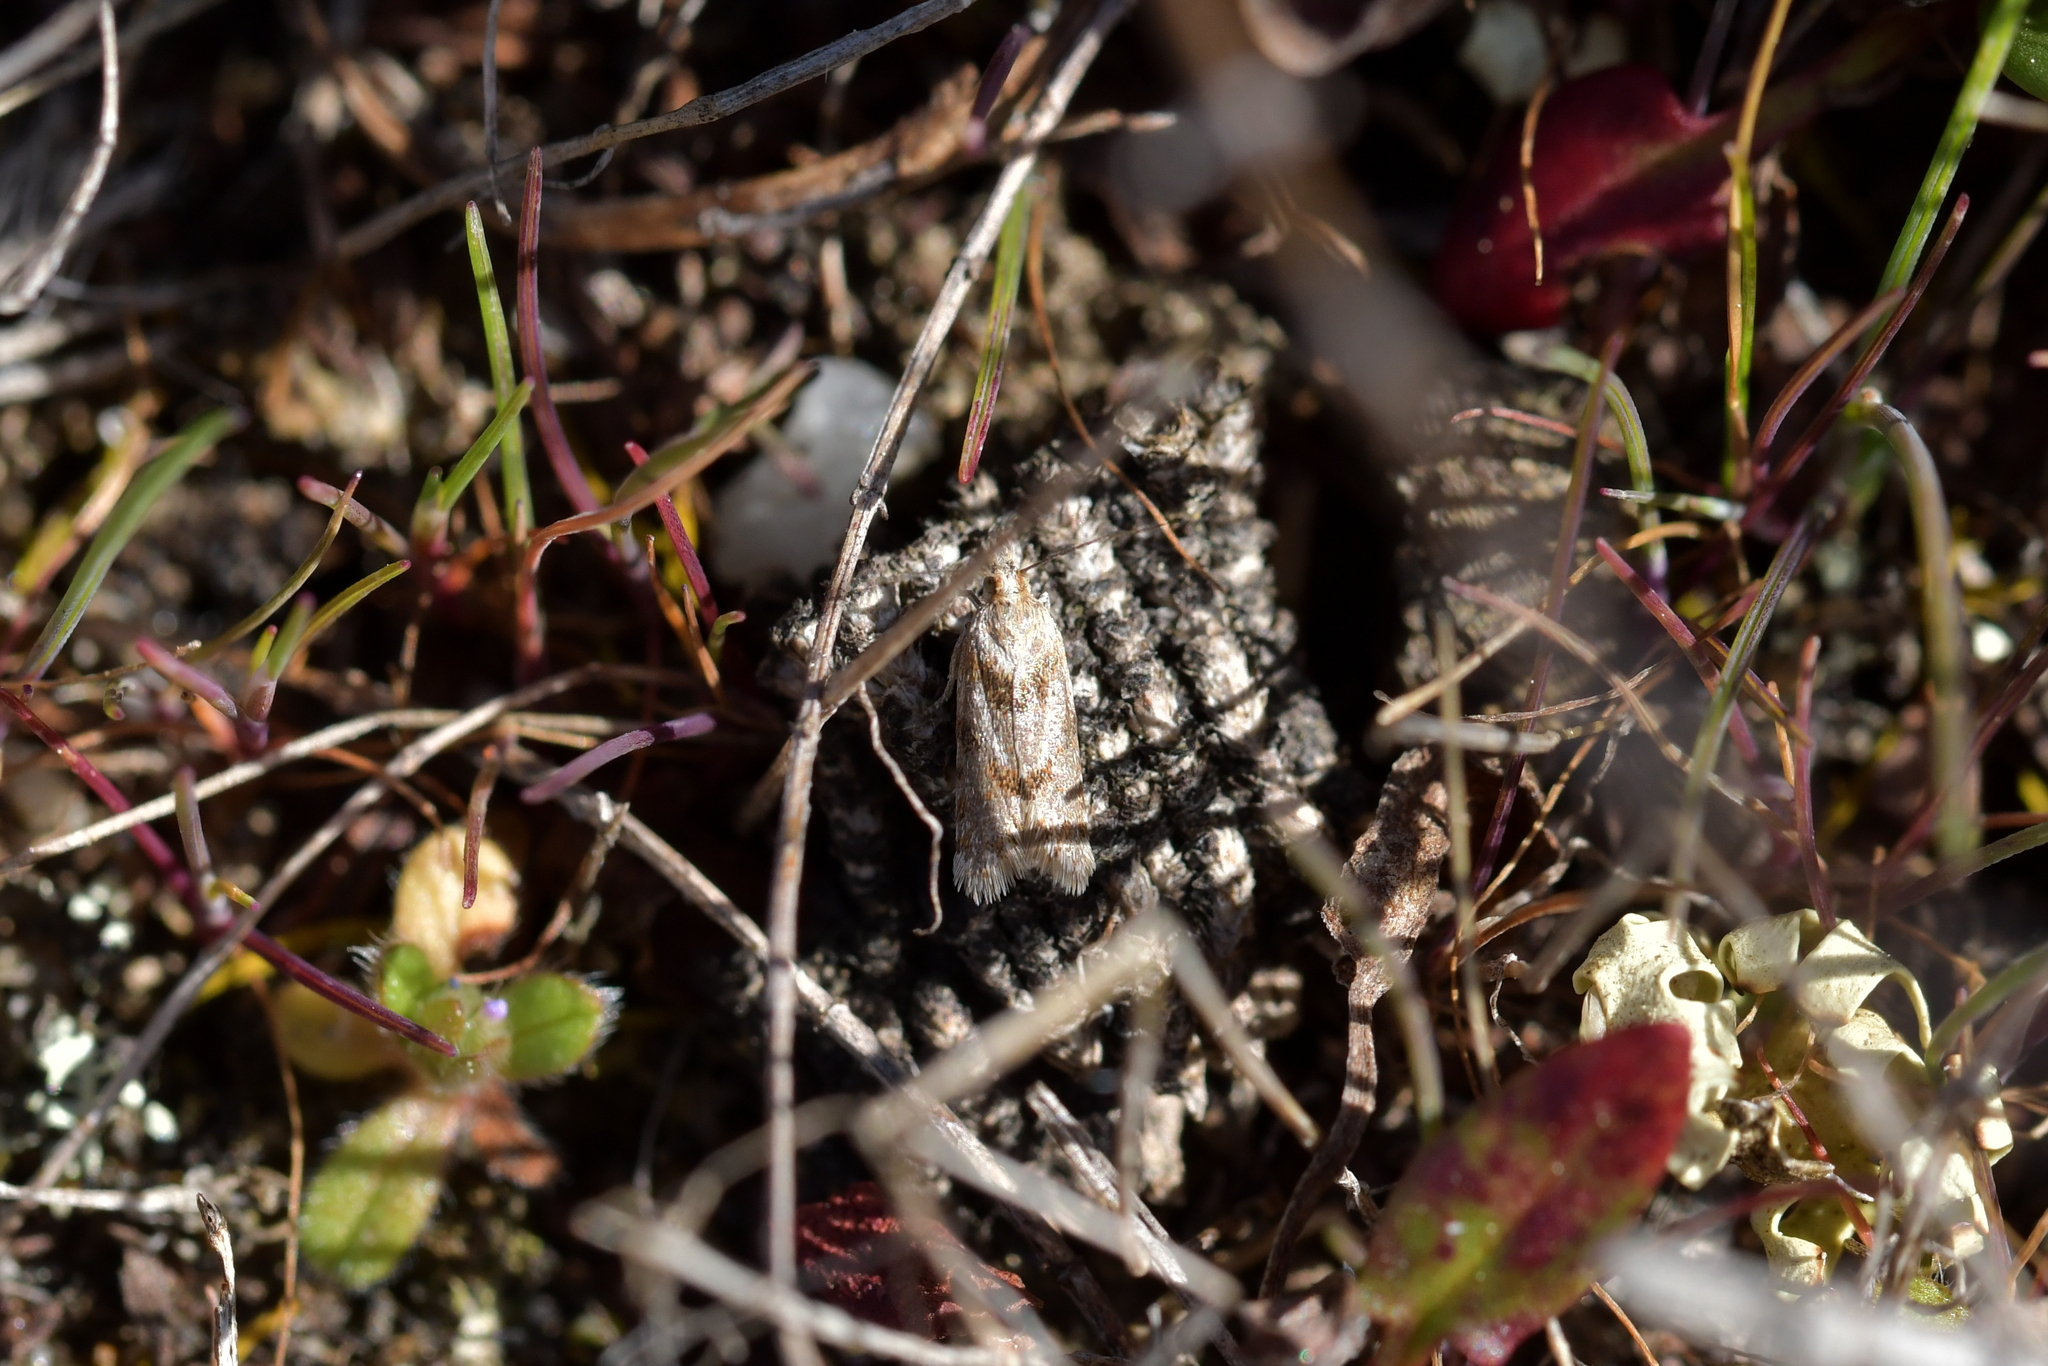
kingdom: Animalia
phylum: Arthropoda
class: Insecta
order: Lepidoptera
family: Tortricidae
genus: Eurythecta
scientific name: Eurythecta zelaea
